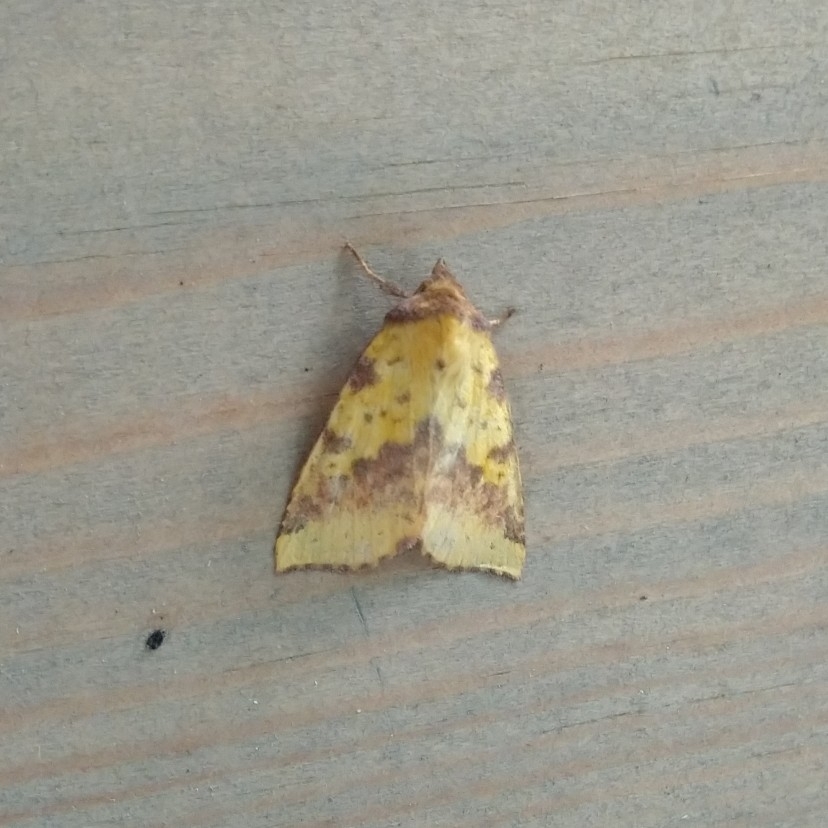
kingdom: Animalia
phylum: Arthropoda
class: Insecta
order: Lepidoptera
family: Noctuidae
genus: Xanthia
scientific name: Xanthia togata
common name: Pink-barred sallow
